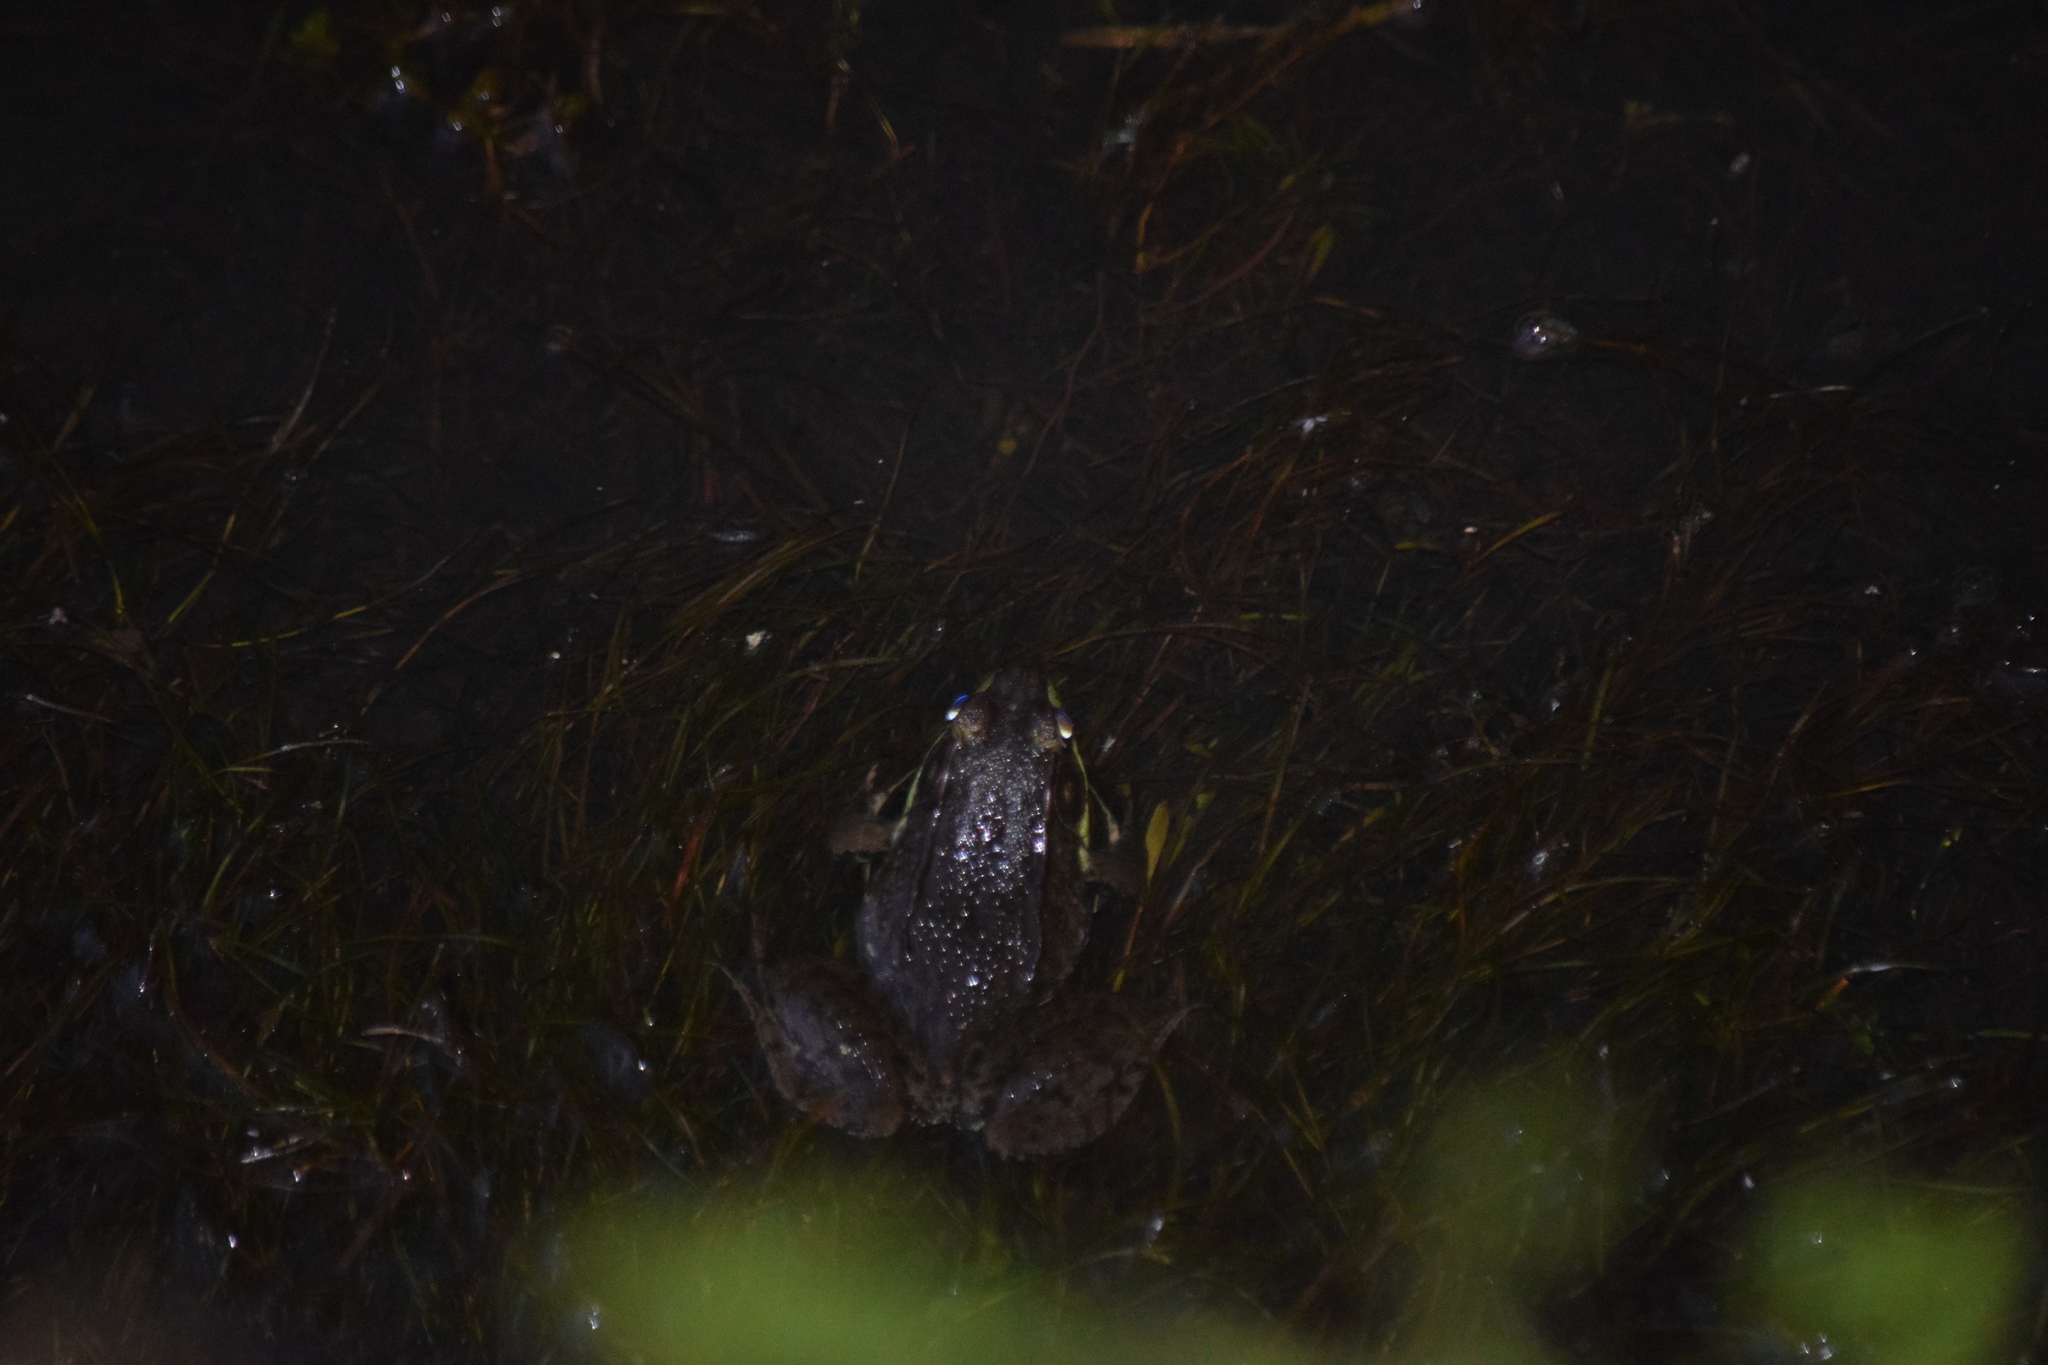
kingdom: Animalia
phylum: Chordata
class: Amphibia
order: Anura
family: Ranidae
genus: Lithobates
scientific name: Lithobates clamitans
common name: Green frog
